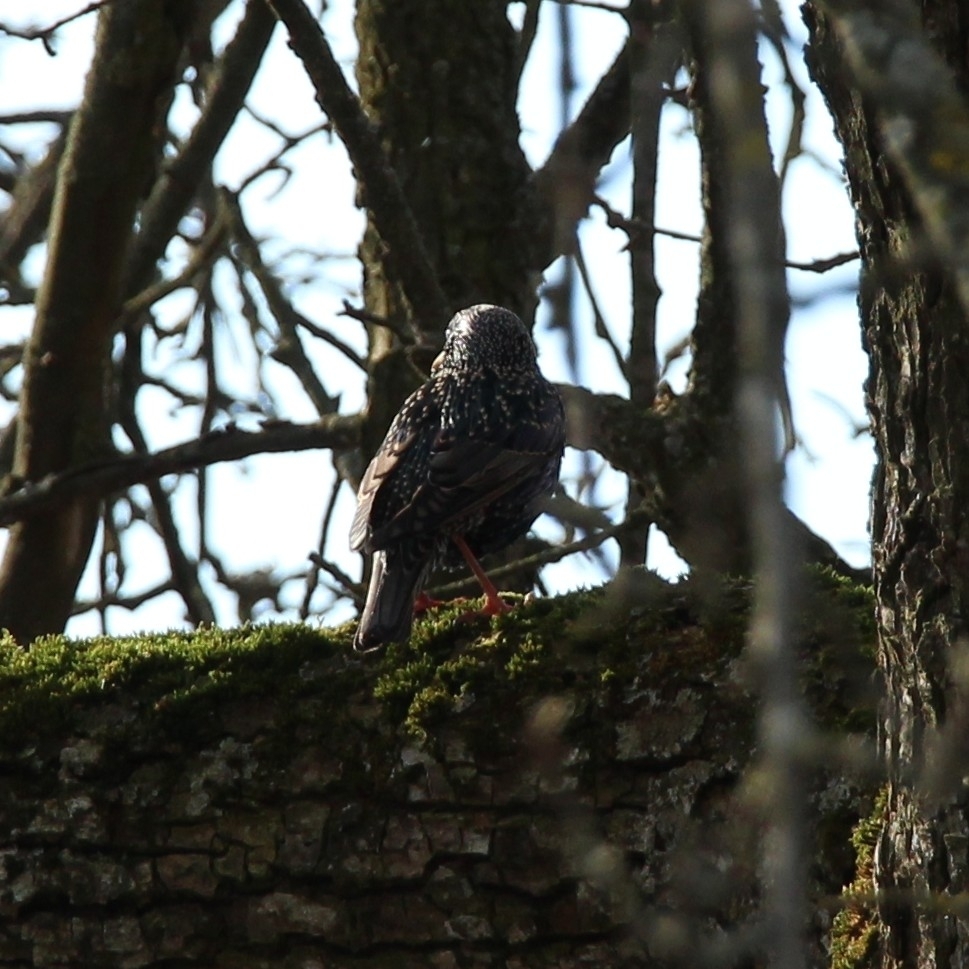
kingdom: Animalia
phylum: Chordata
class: Aves
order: Passeriformes
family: Sturnidae
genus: Sturnus
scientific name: Sturnus vulgaris
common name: Common starling
